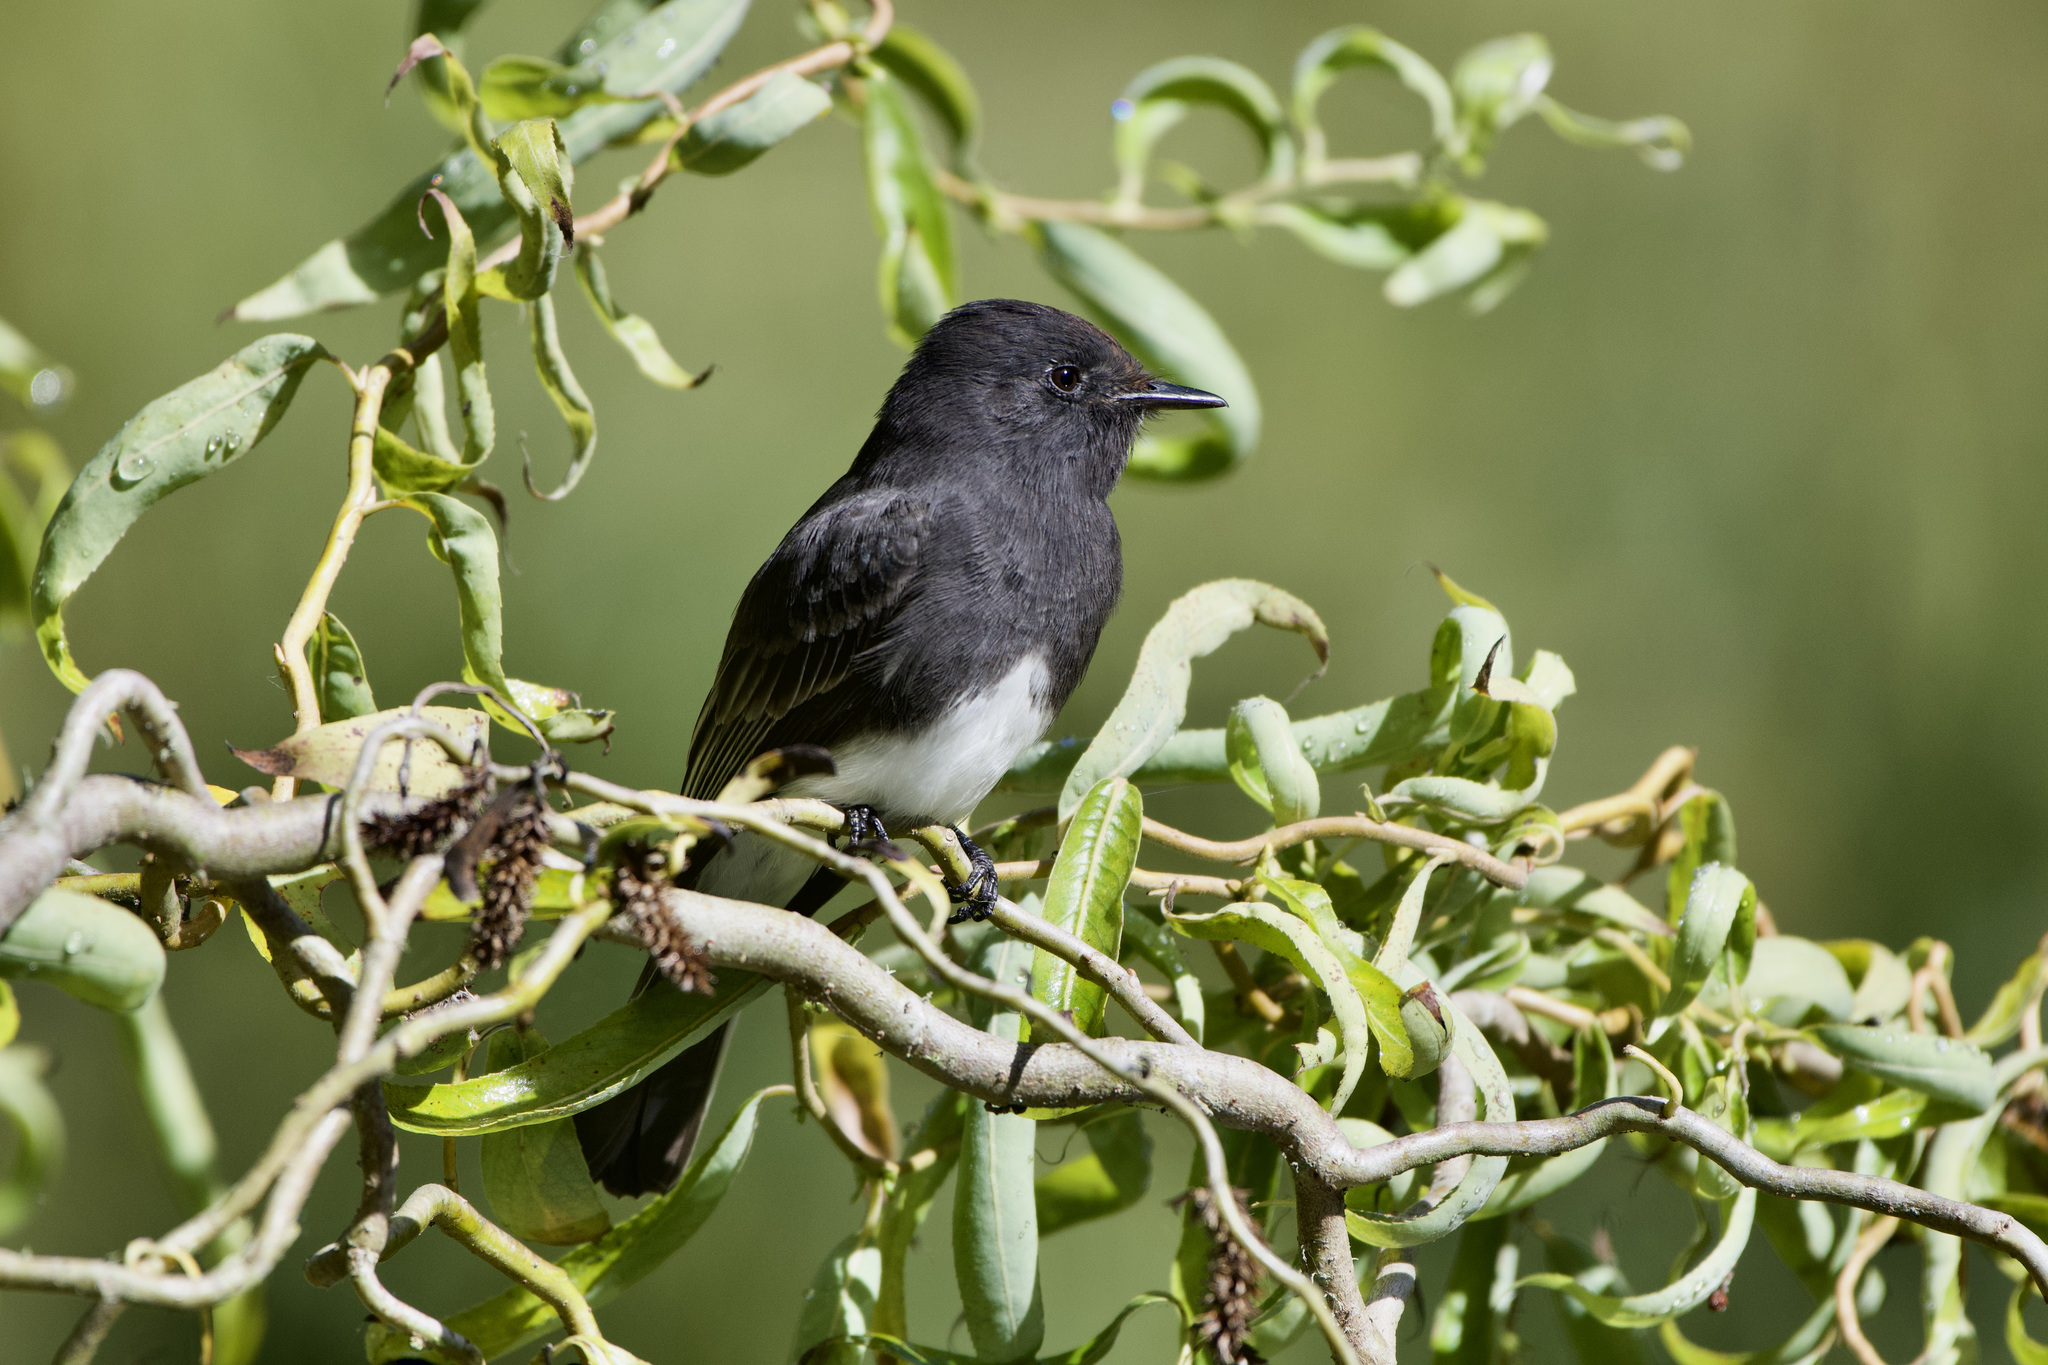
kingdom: Animalia
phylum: Chordata
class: Aves
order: Passeriformes
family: Tyrannidae
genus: Sayornis
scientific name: Sayornis nigricans
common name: Black phoebe
